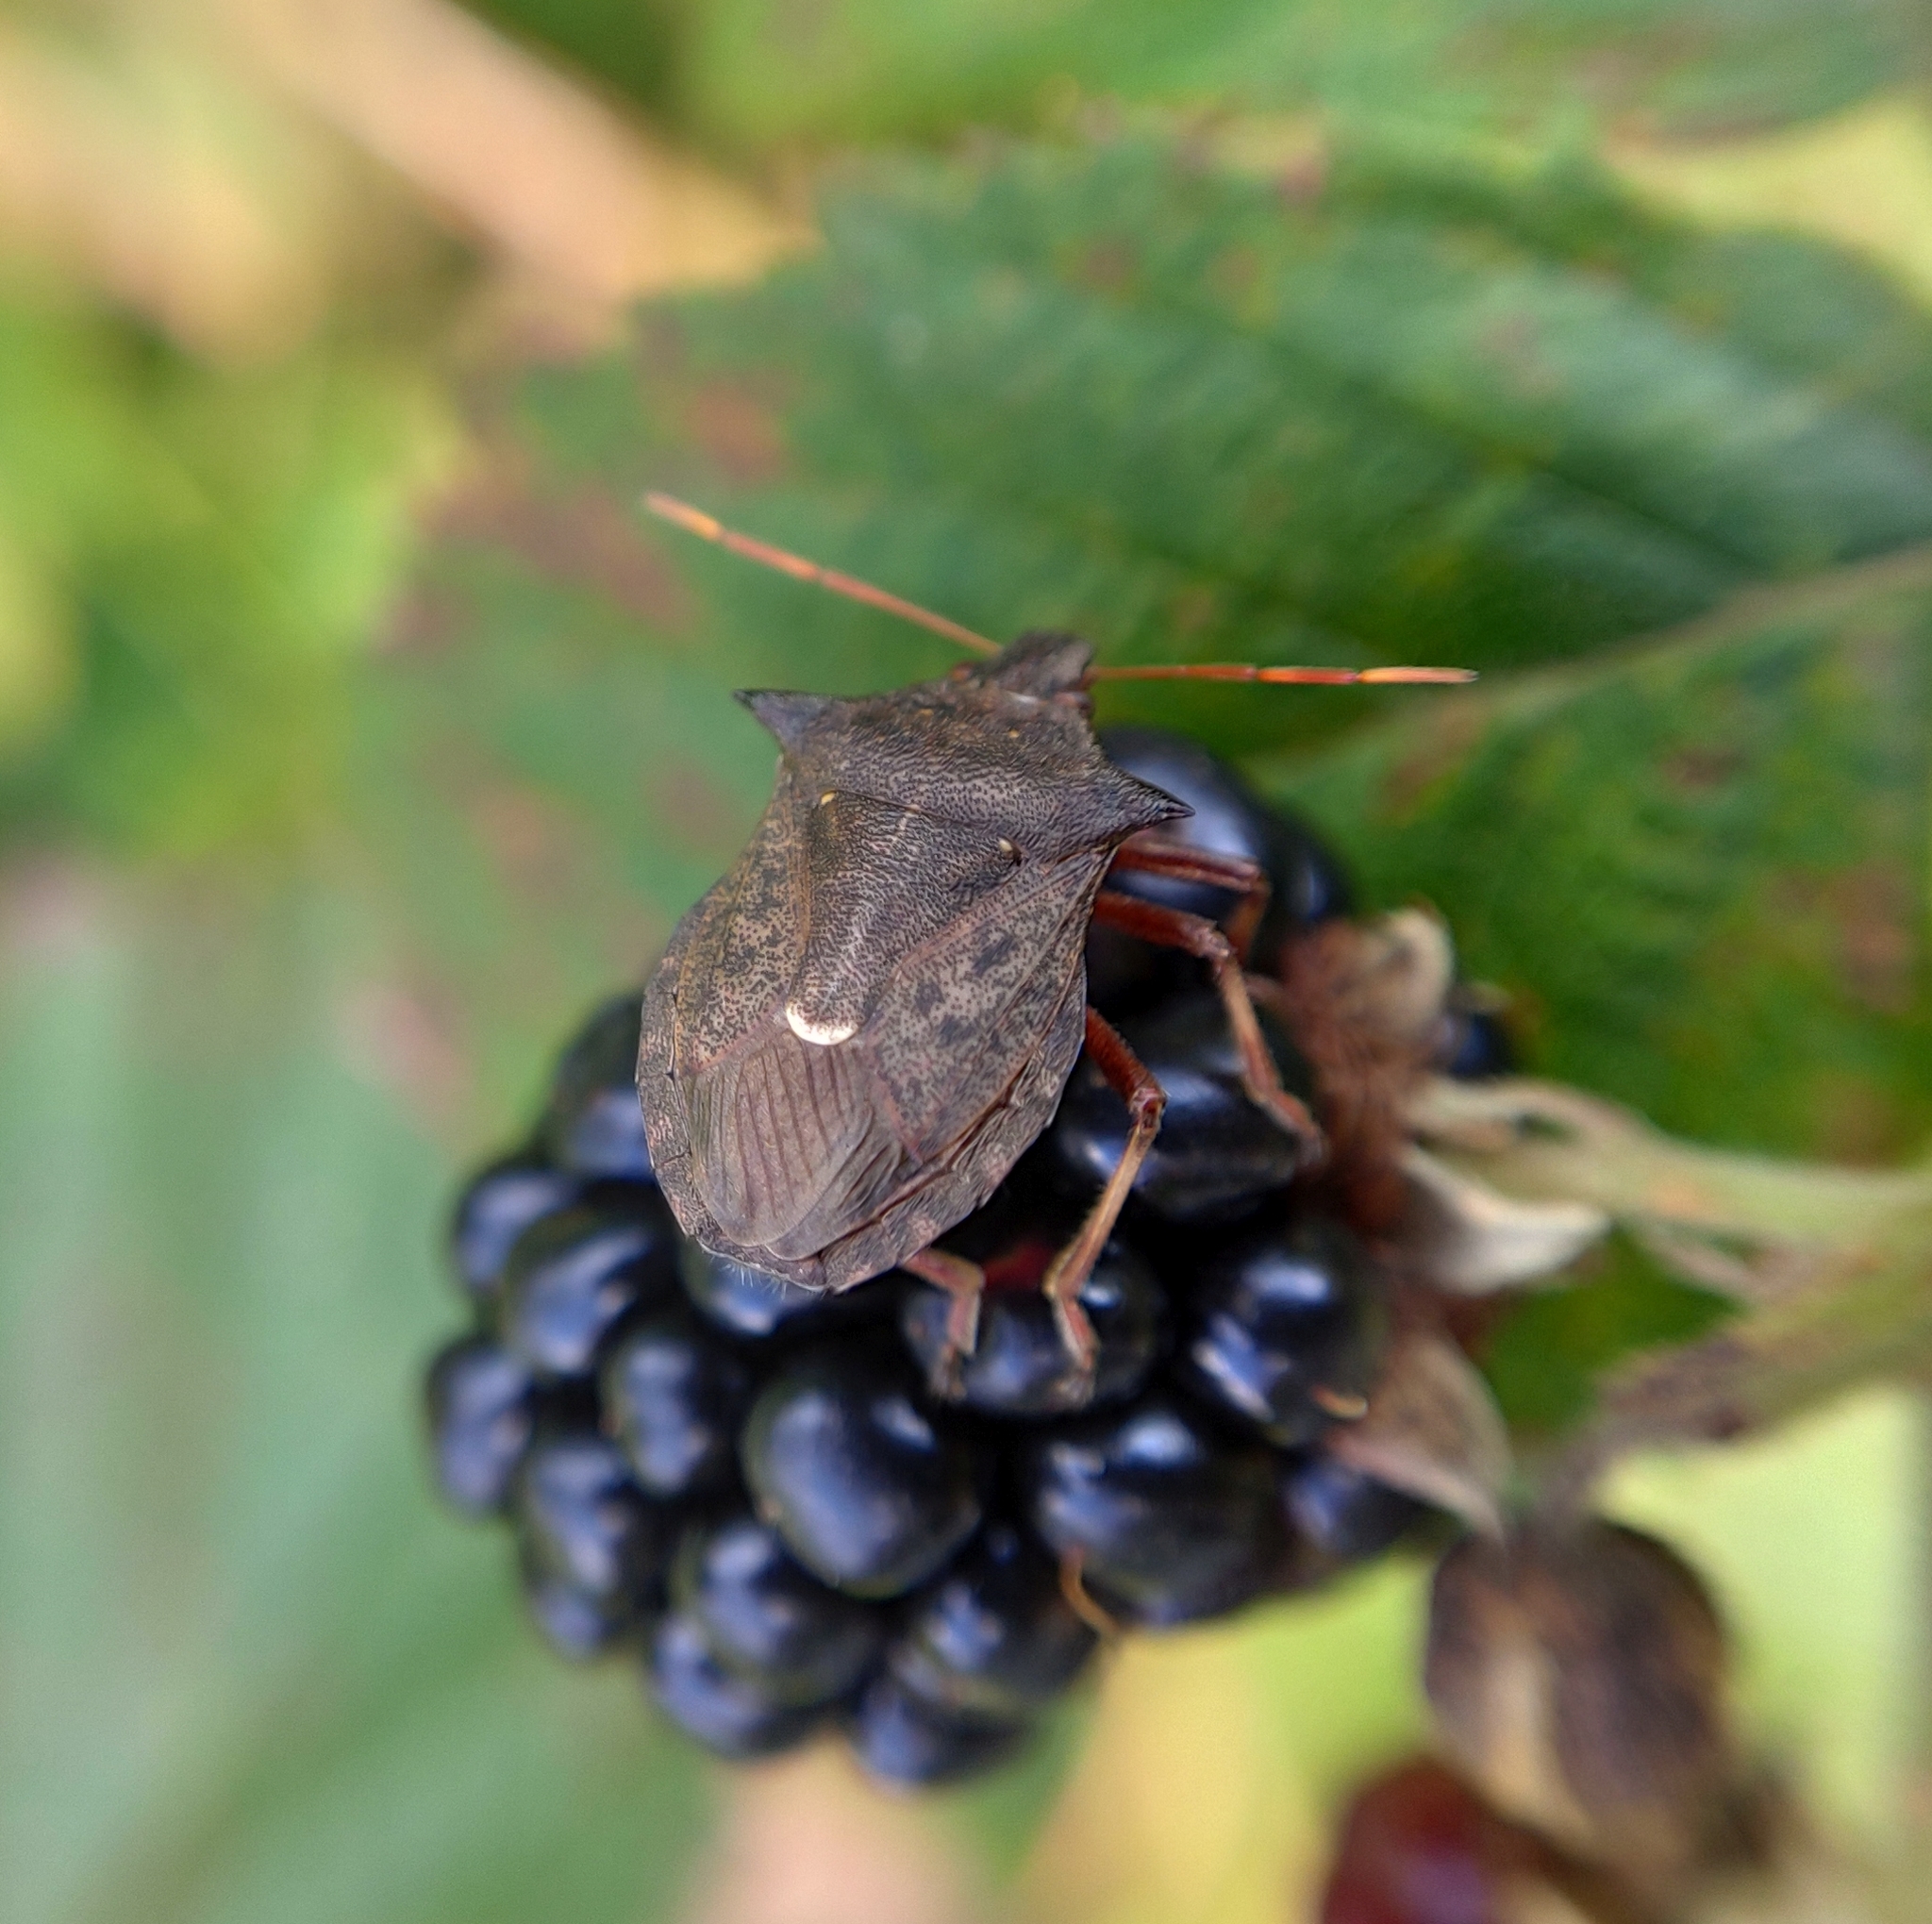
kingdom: Animalia
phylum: Arthropoda
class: Insecta
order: Hemiptera
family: Pentatomidae
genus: Picromerus
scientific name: Picromerus bidens
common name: Spiked shieldbug
